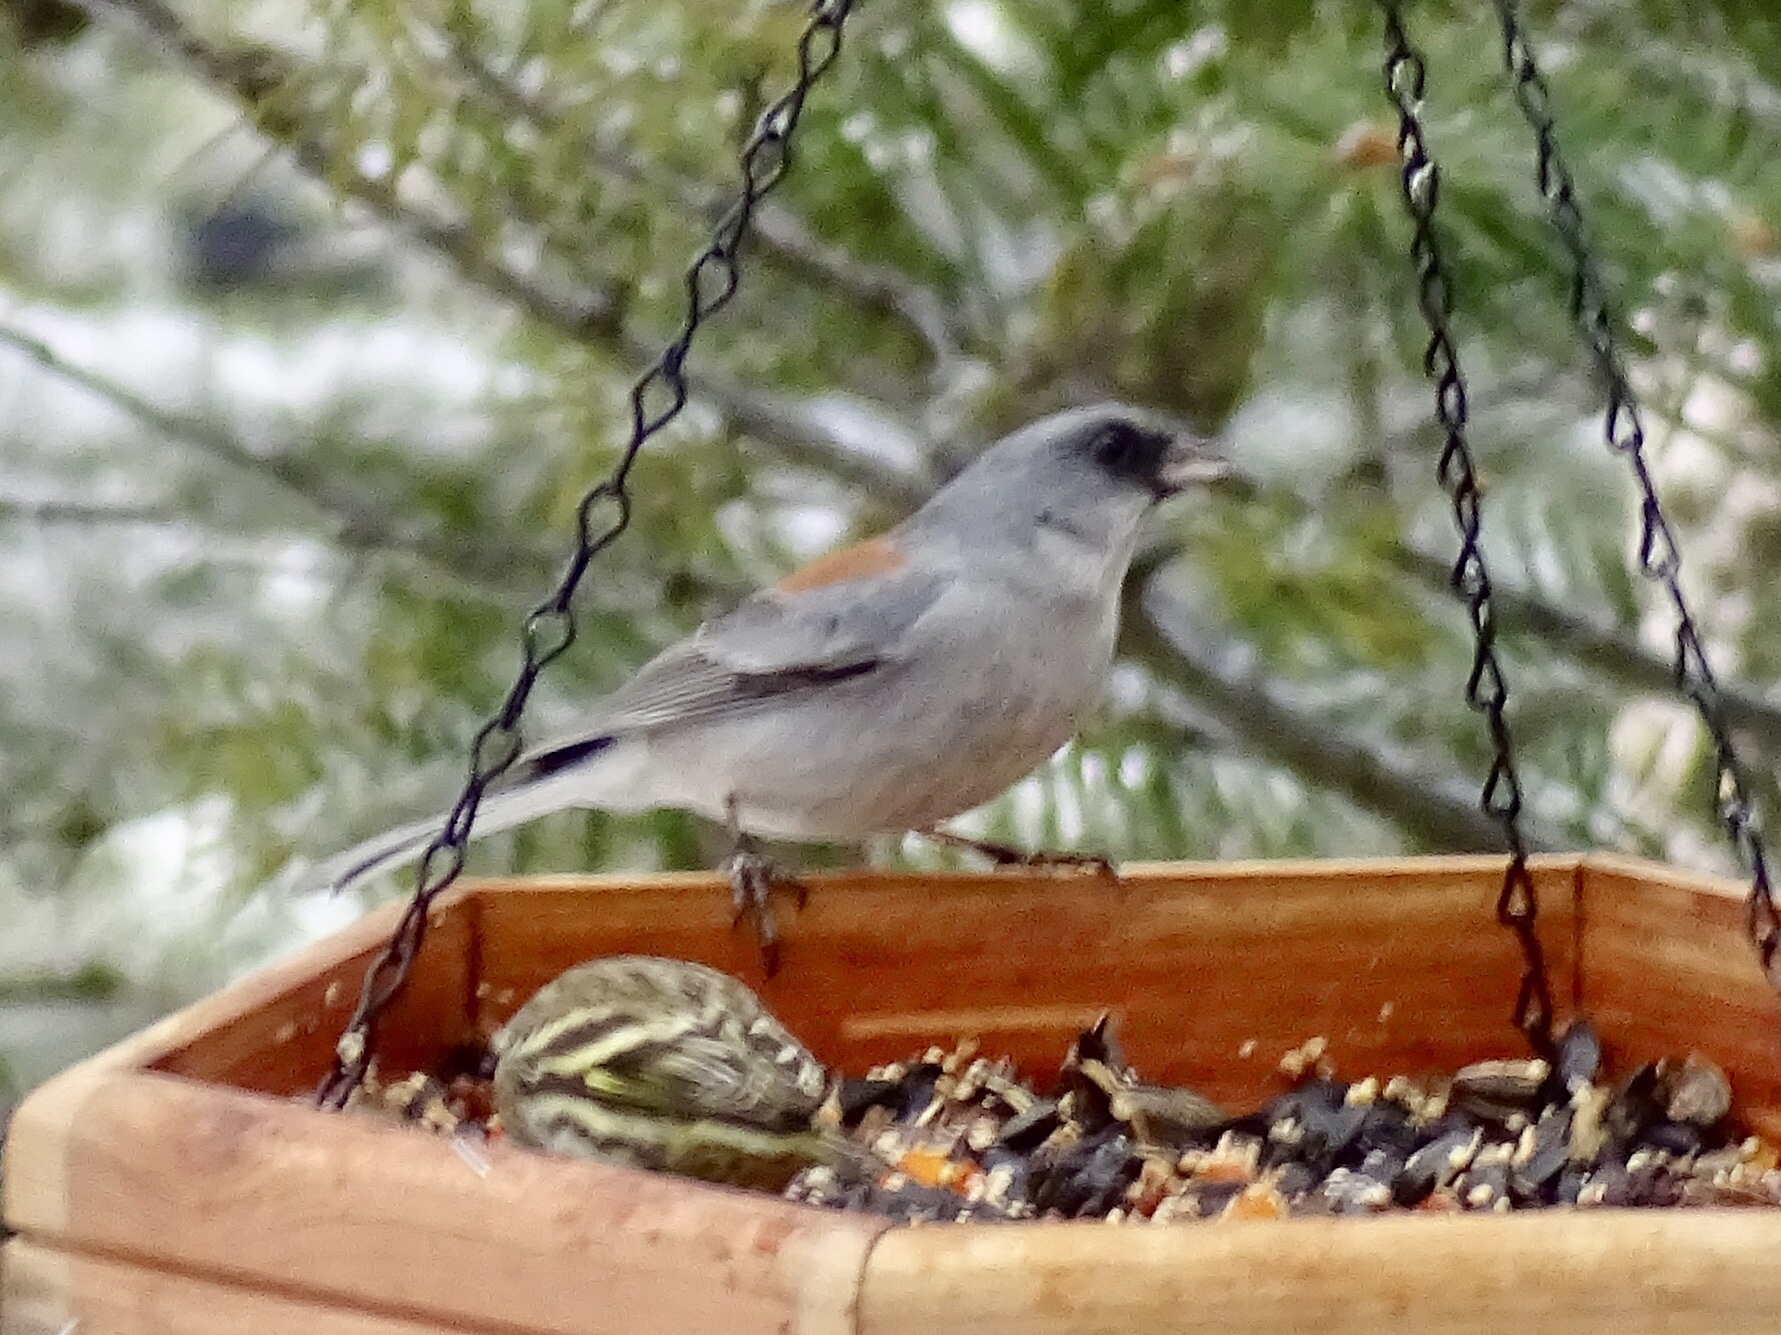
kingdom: Animalia
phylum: Chordata
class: Aves
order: Passeriformes
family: Passerellidae
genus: Junco
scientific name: Junco hyemalis
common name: Dark-eyed junco
